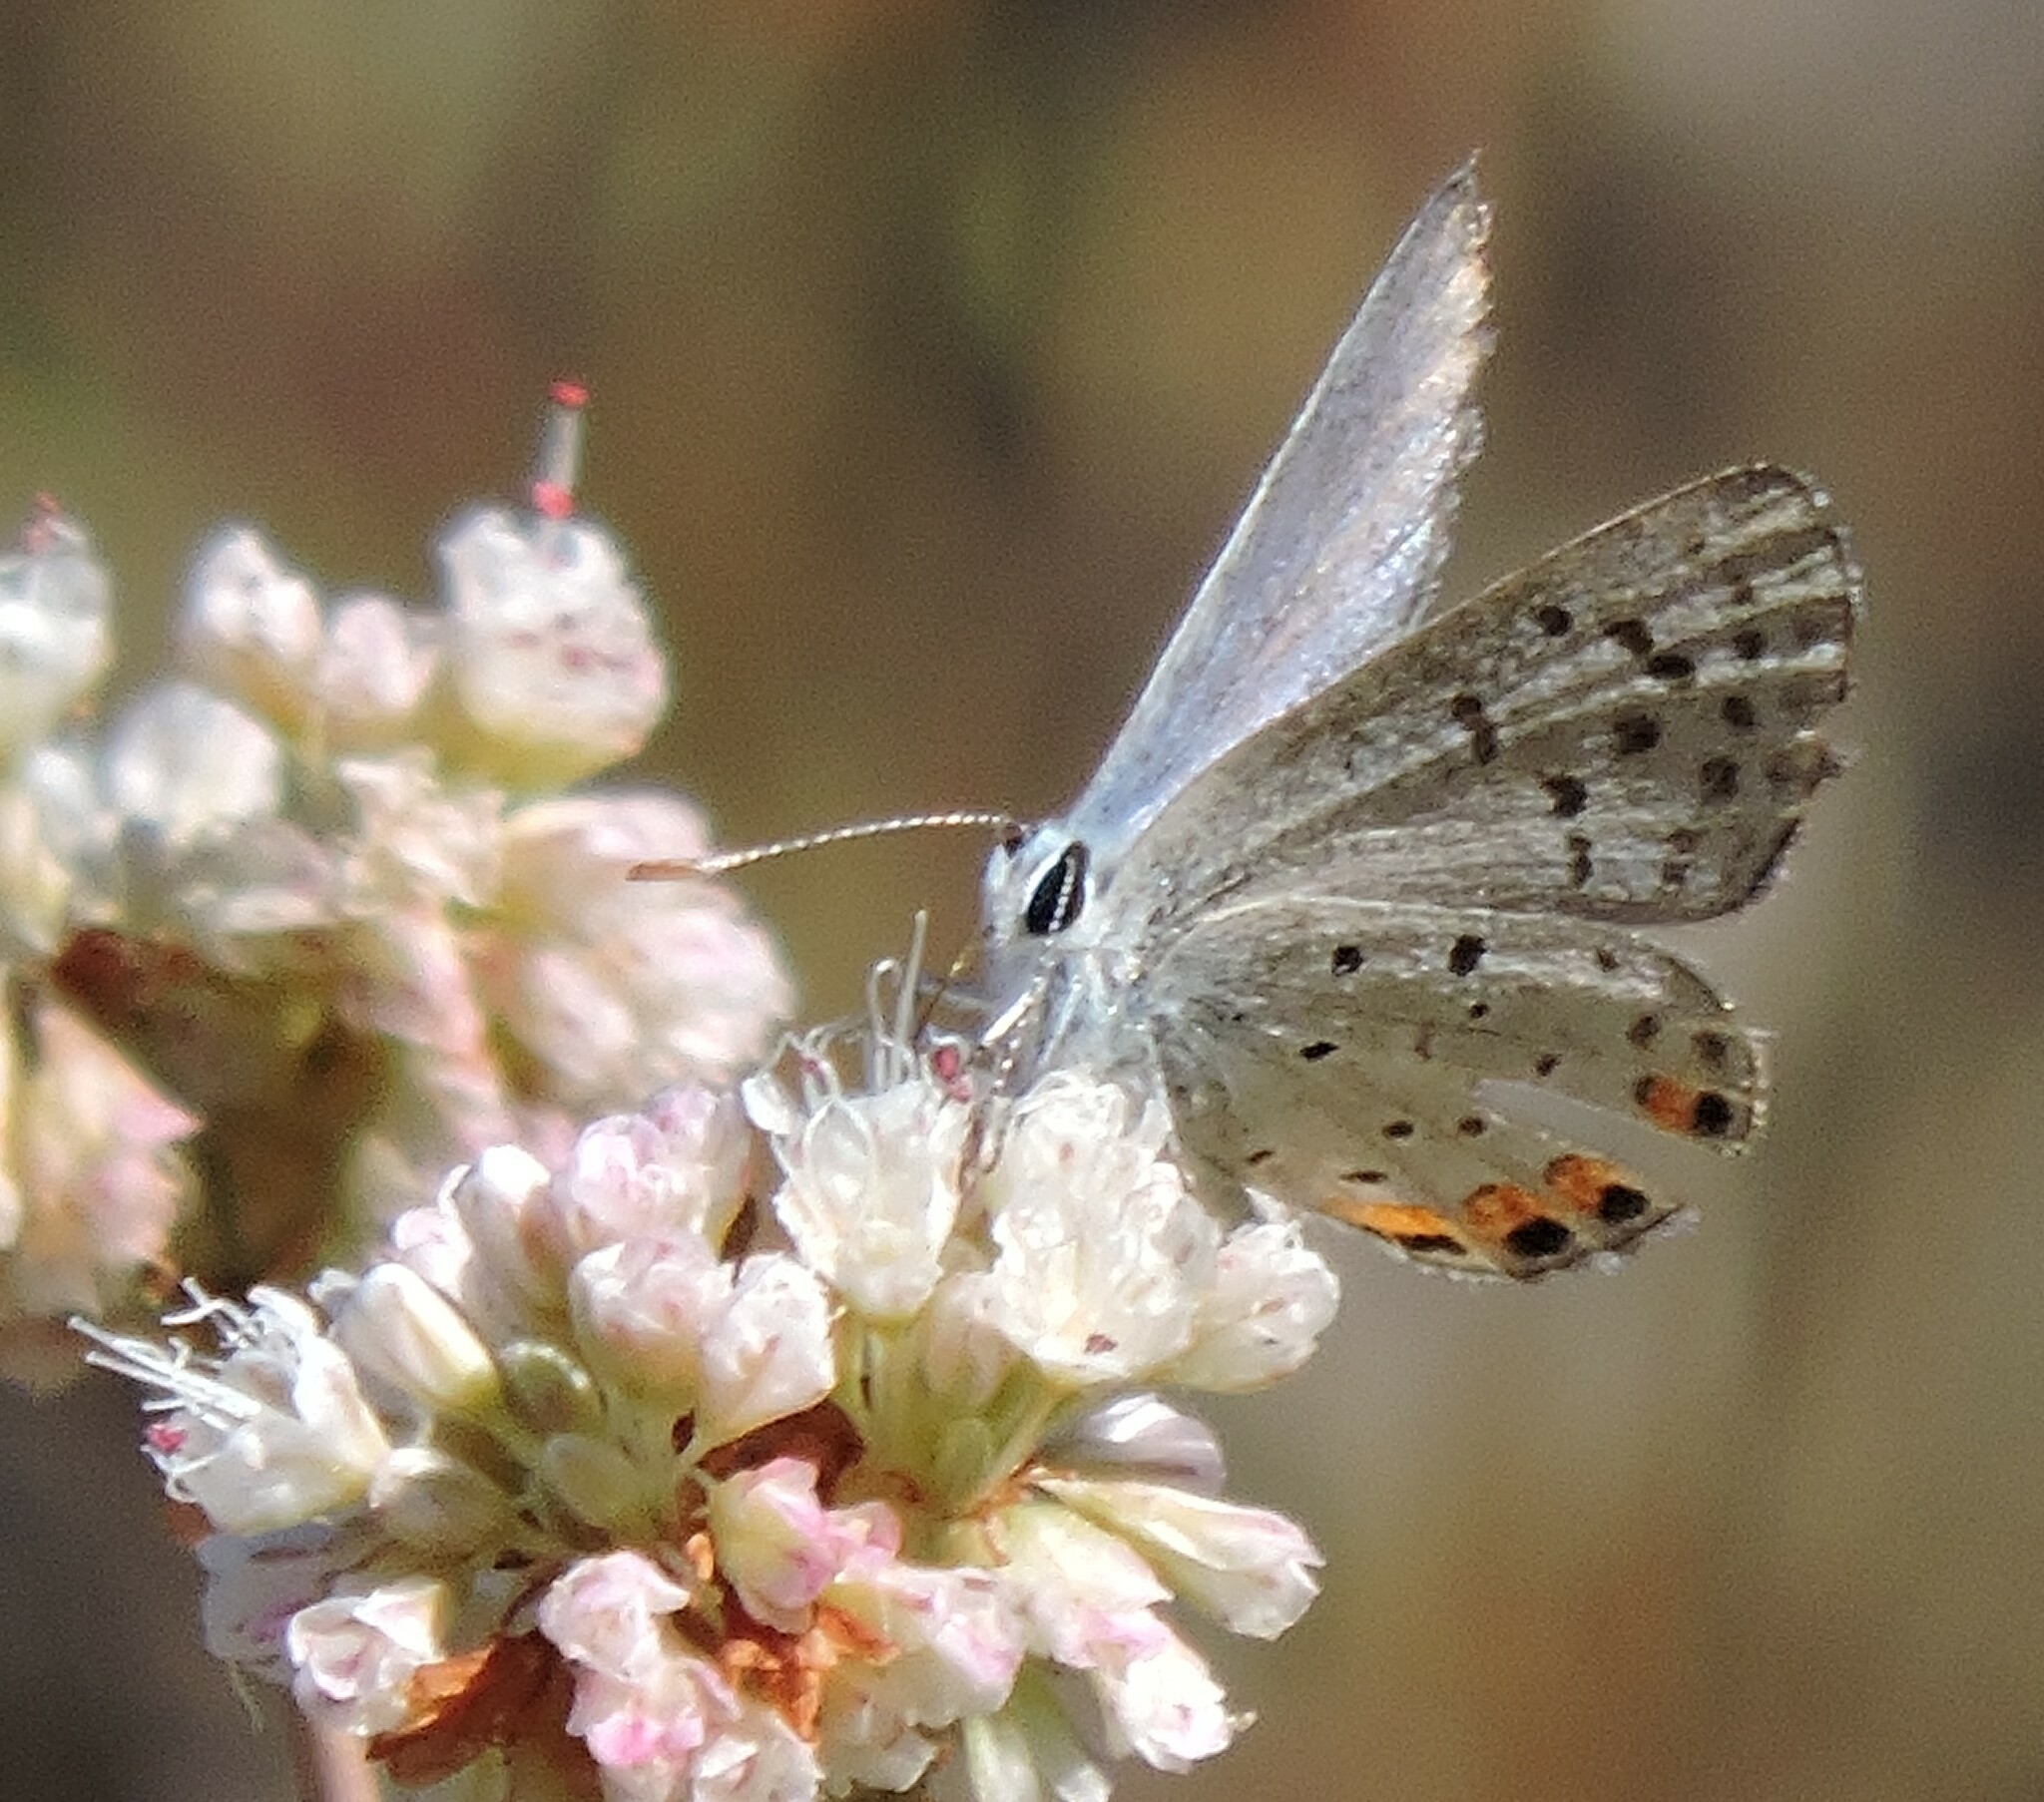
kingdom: Animalia
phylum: Arthropoda
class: Insecta
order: Lepidoptera
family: Lycaenidae
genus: Icaricia
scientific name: Icaricia acmon
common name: Acmon blue
